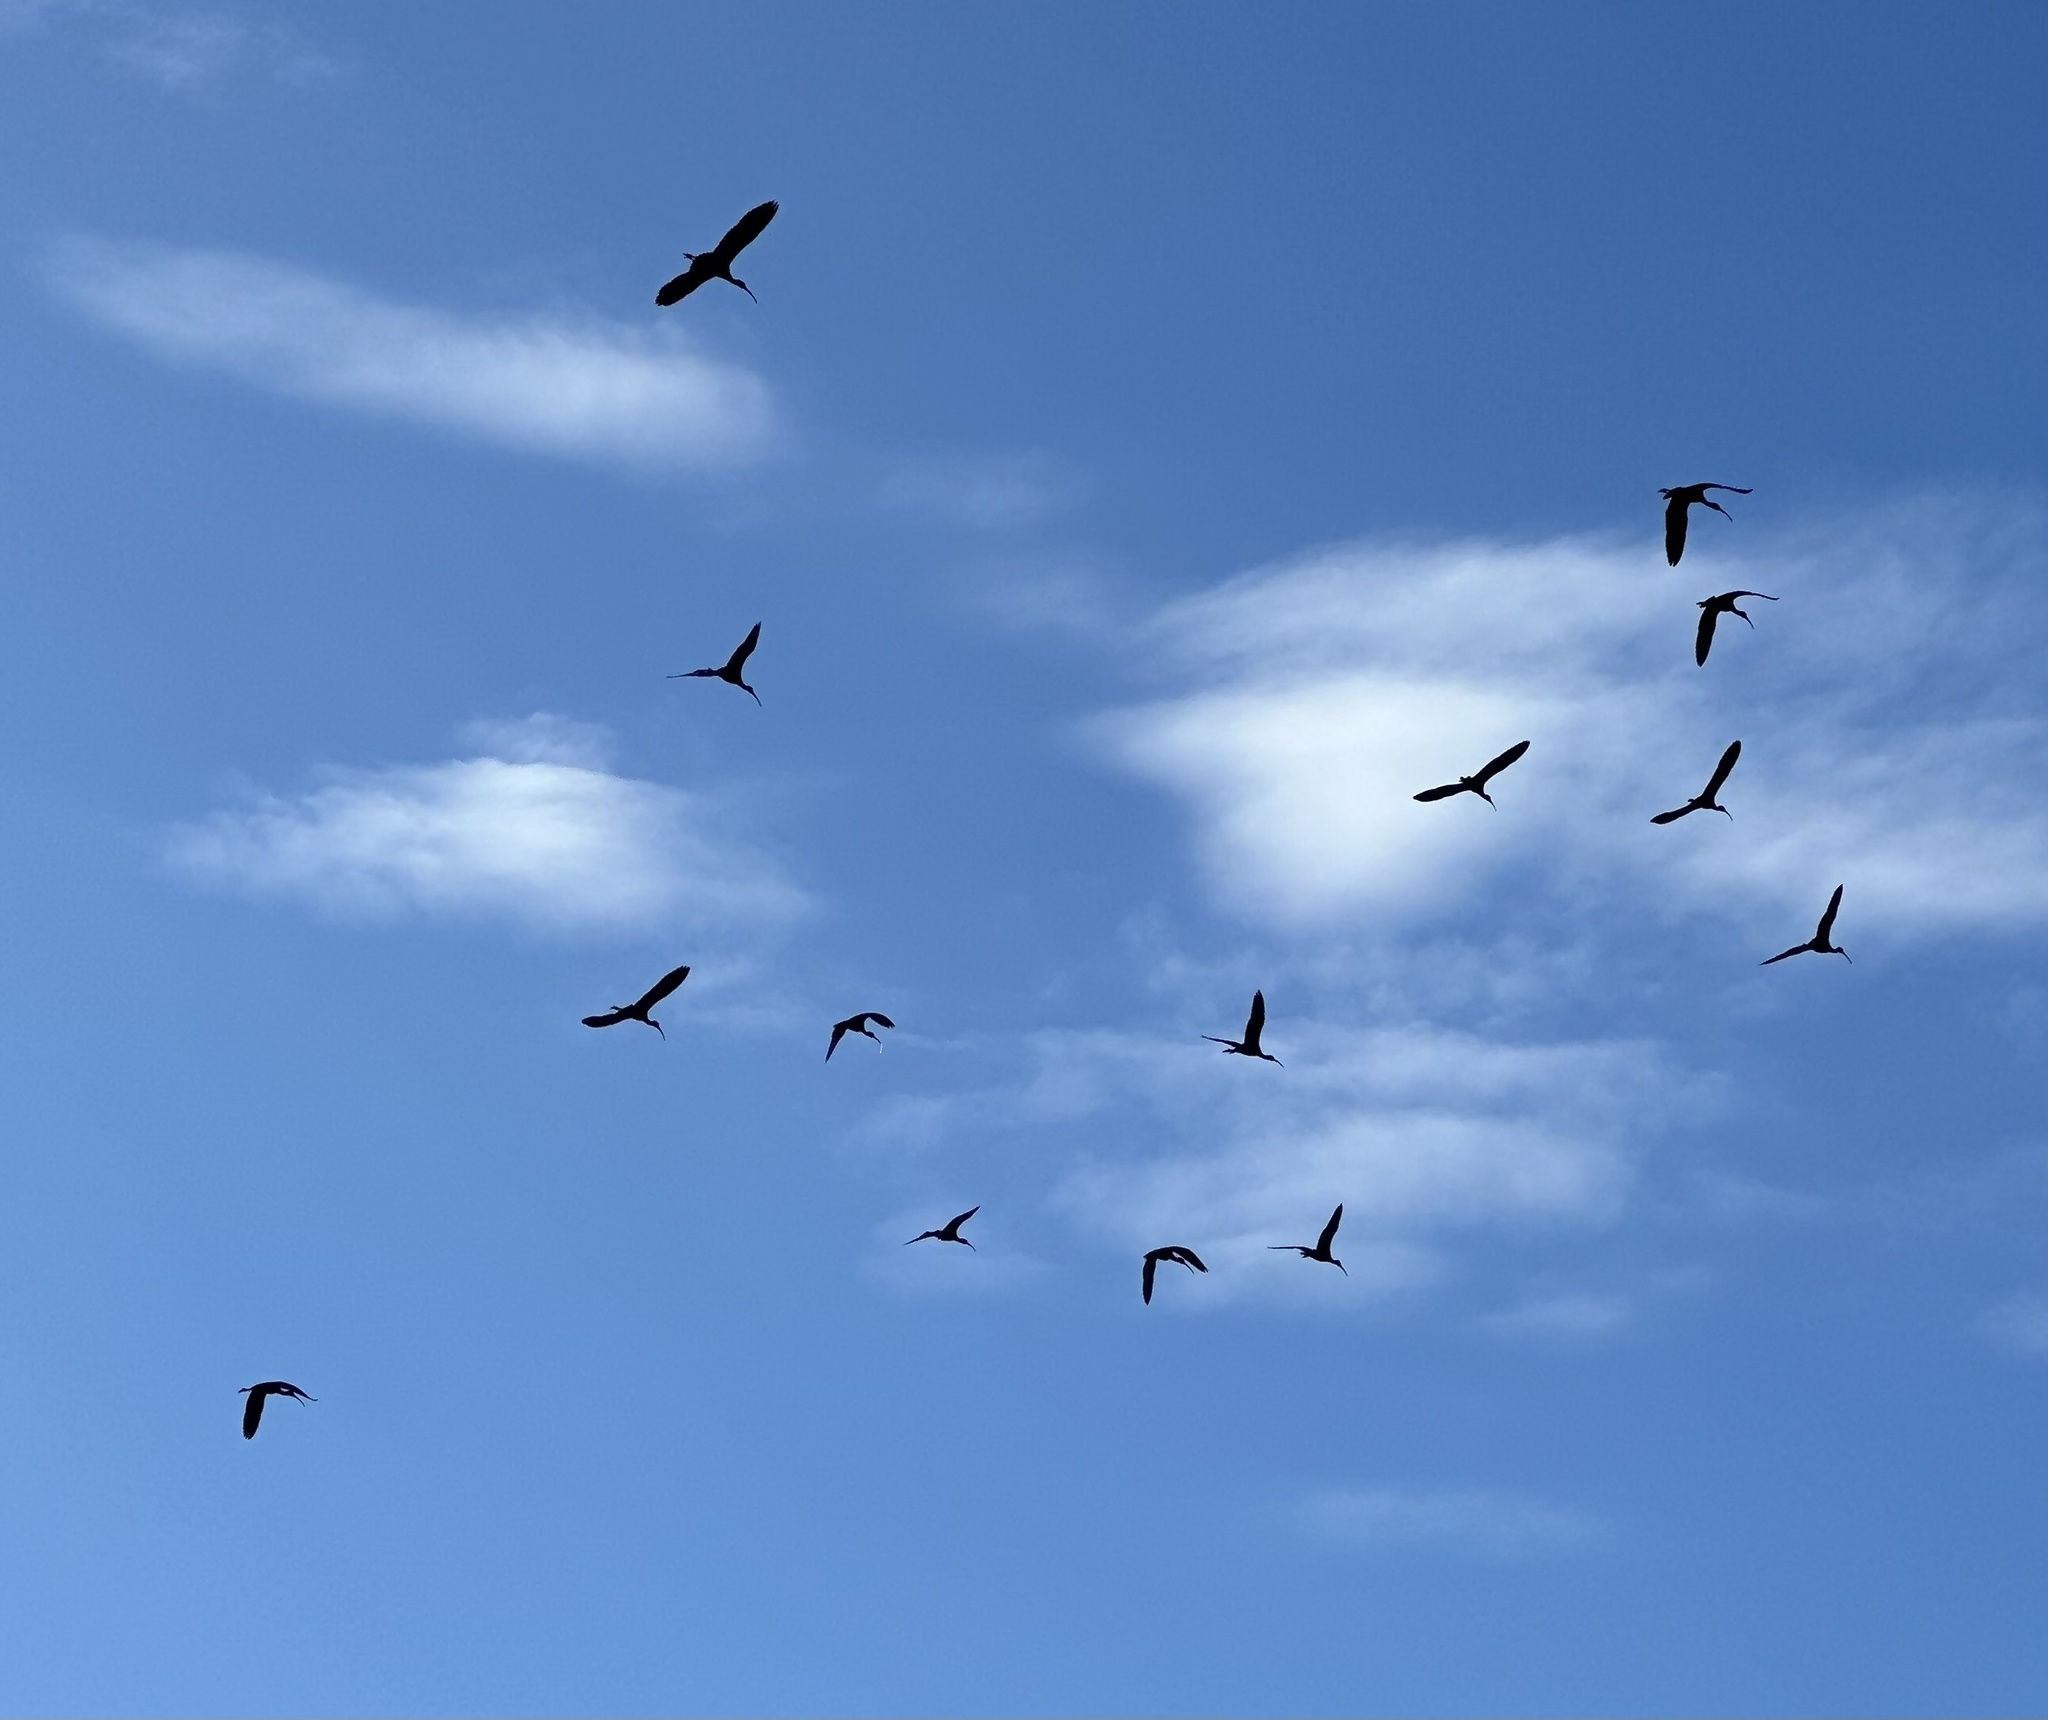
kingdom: Animalia
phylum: Chordata
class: Aves
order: Pelecaniformes
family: Threskiornithidae
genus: Plegadis
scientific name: Plegadis falcinellus
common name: Glossy ibis
